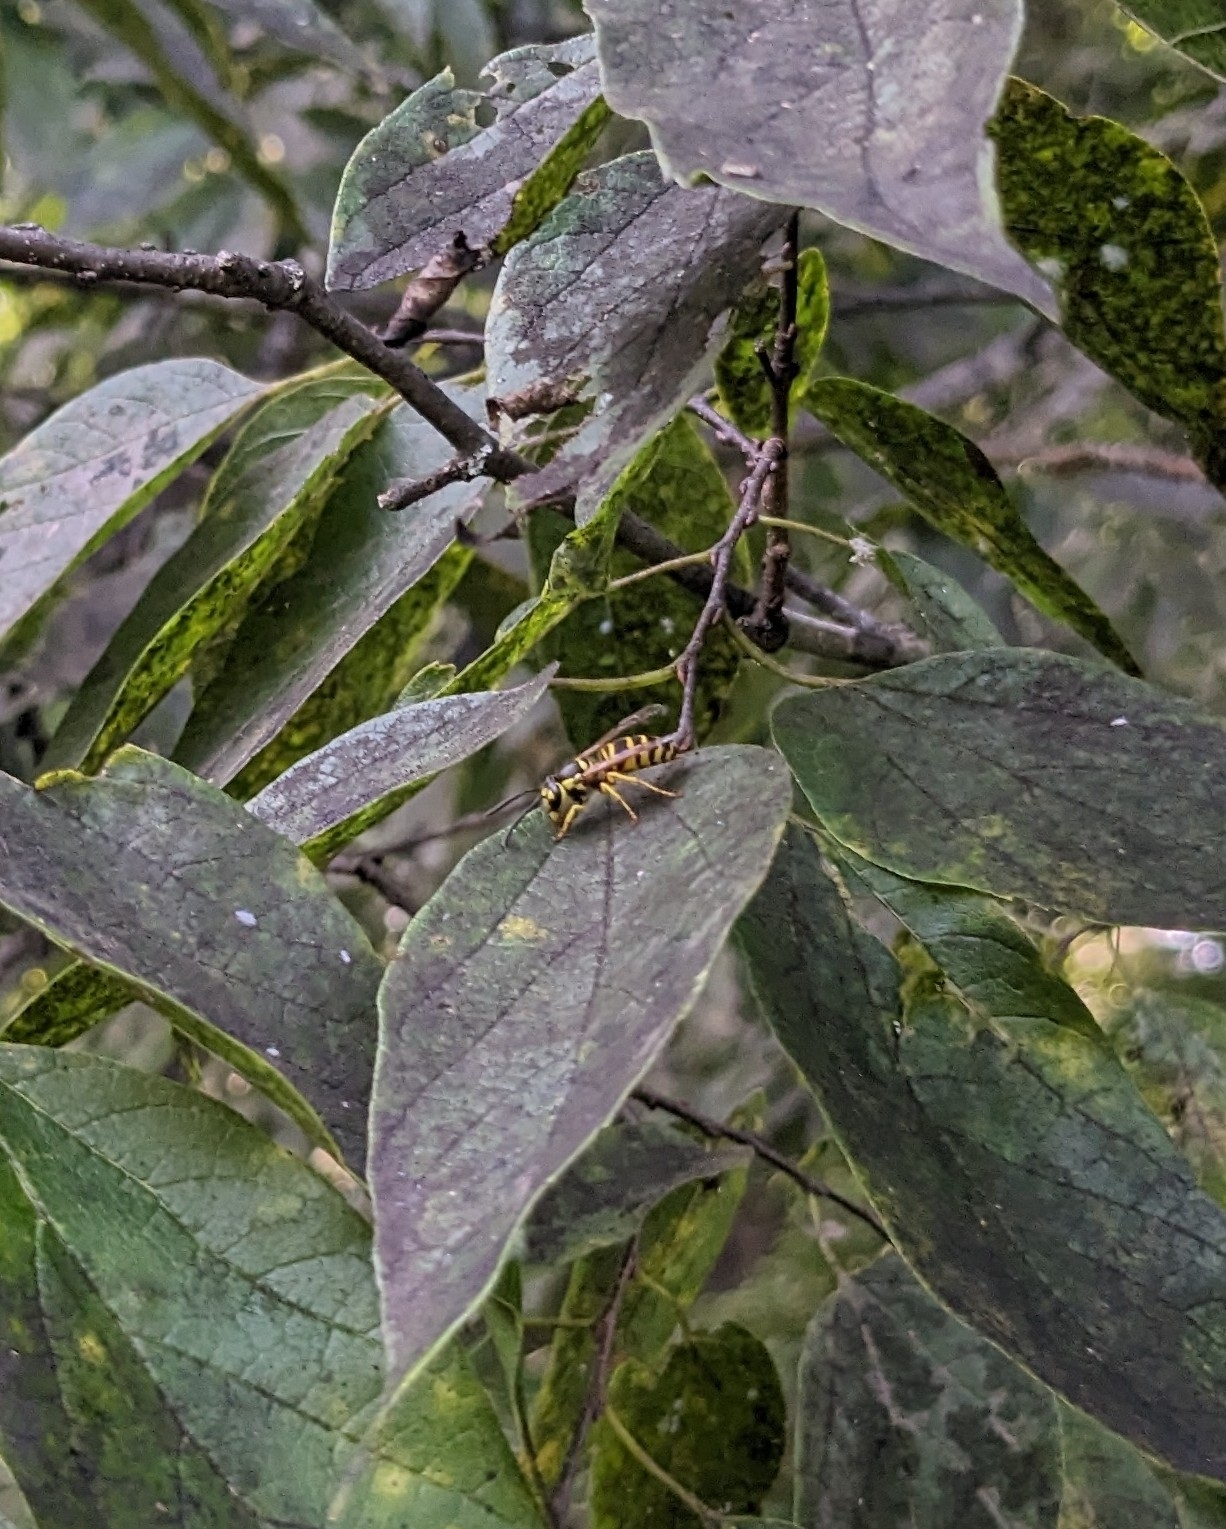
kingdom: Animalia
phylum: Arthropoda
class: Insecta
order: Hymenoptera
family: Vespidae
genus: Vespula
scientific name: Vespula maculifrons
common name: Eastern yellowjacket
